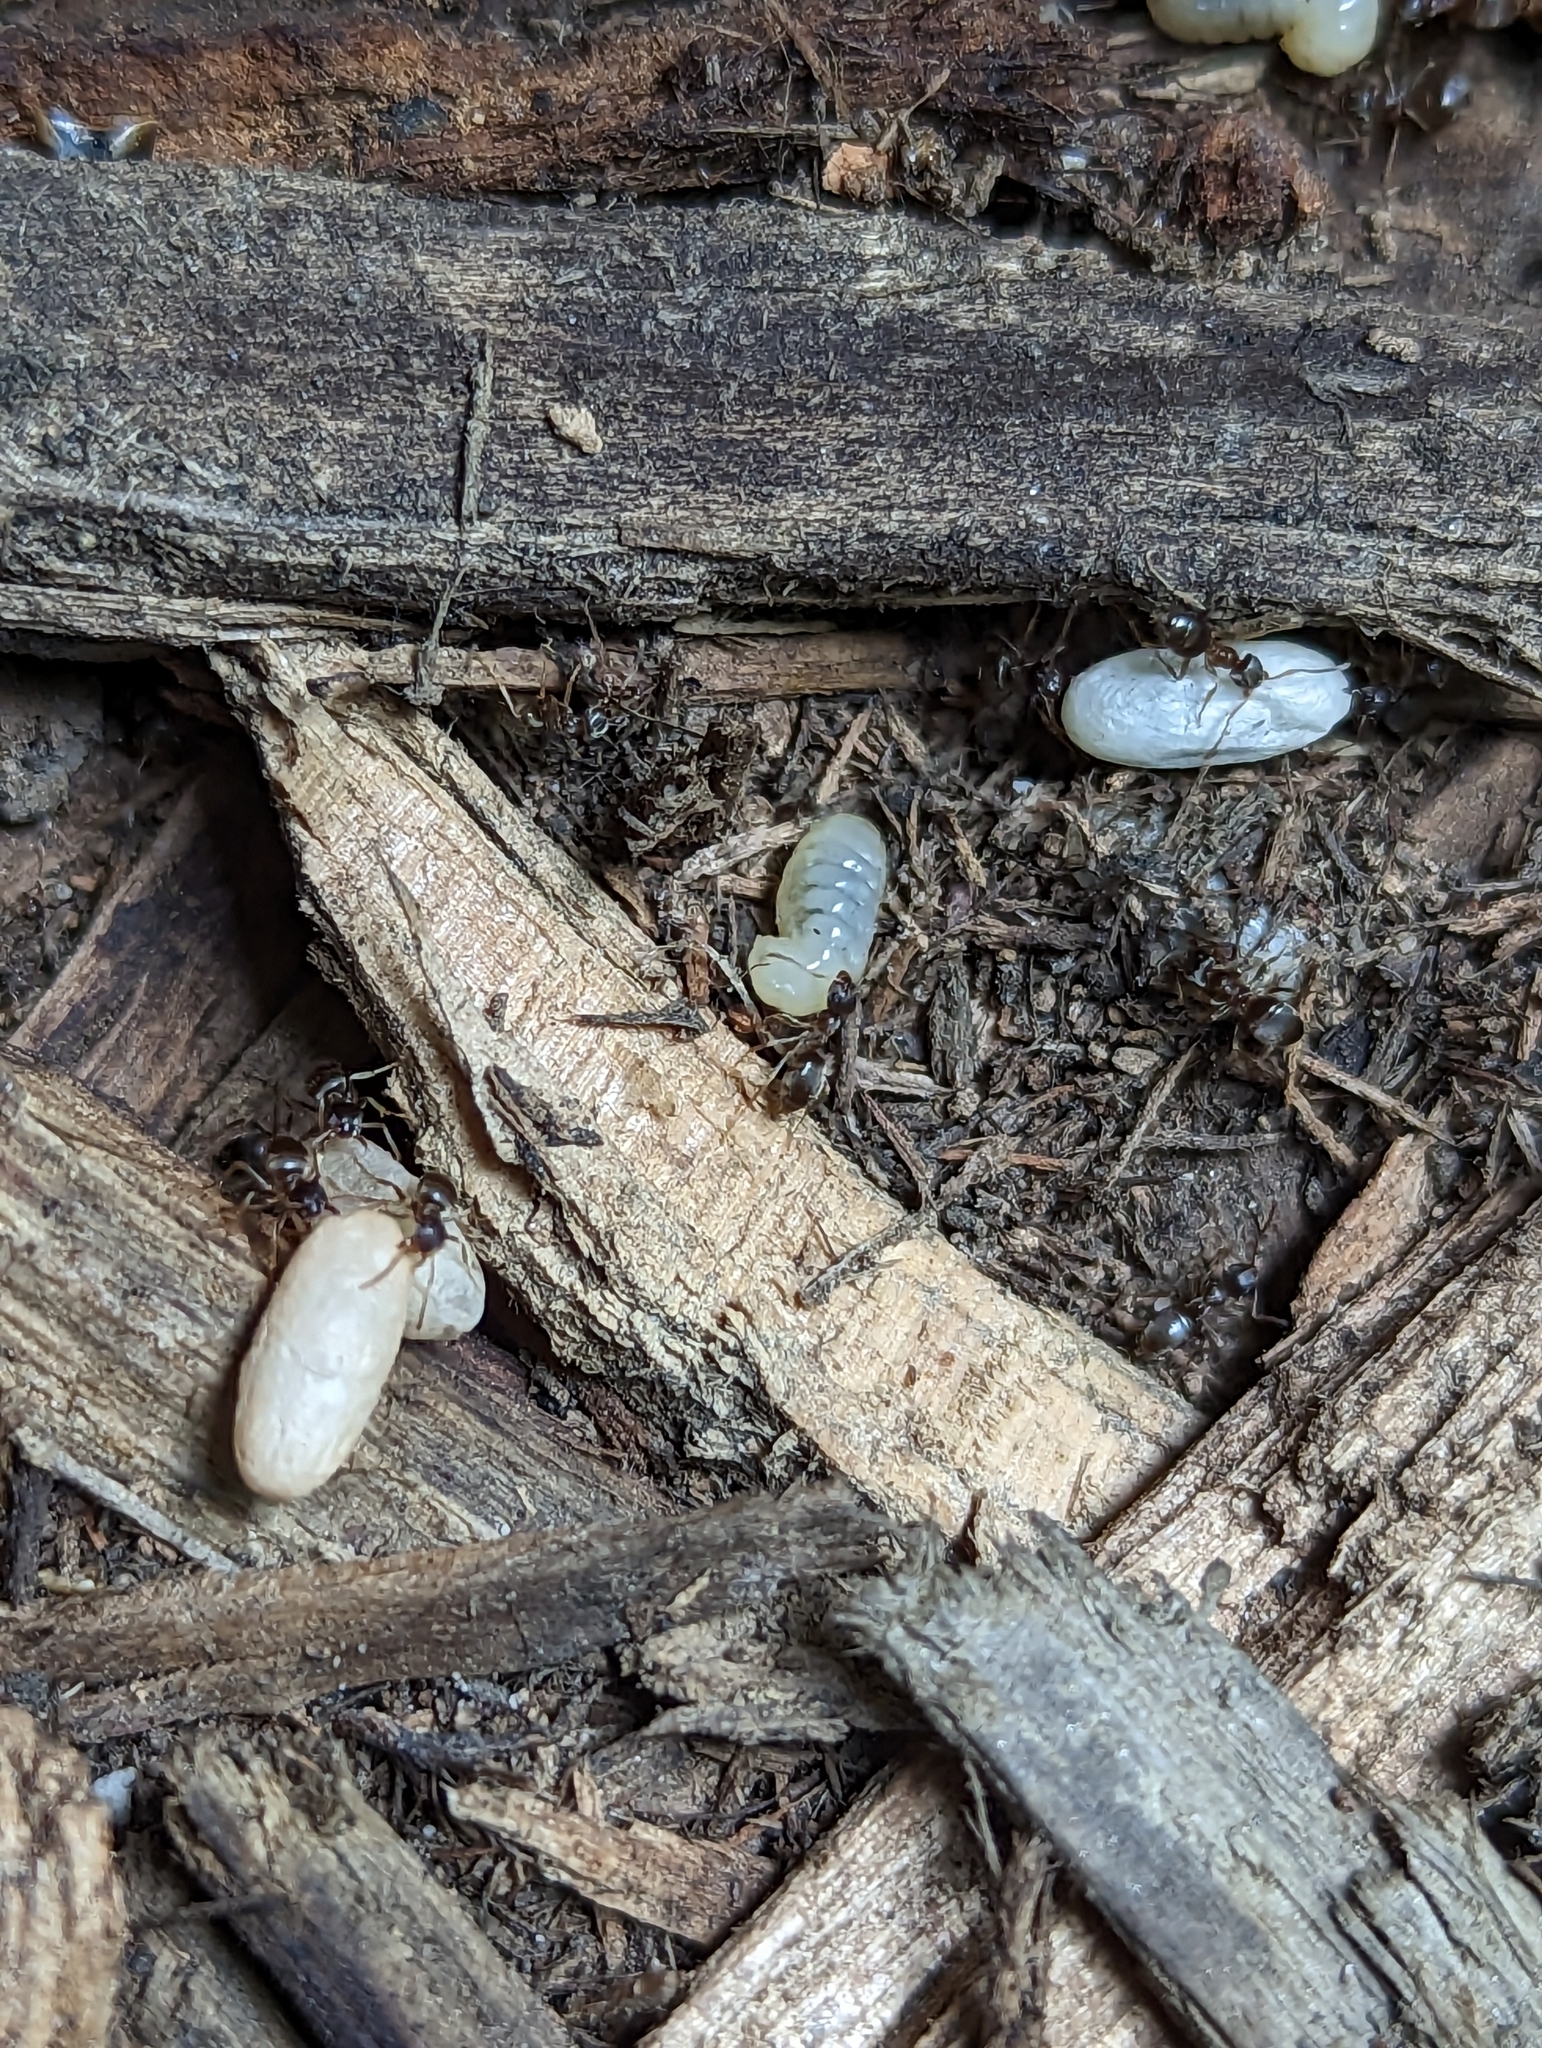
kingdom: Animalia
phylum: Arthropoda
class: Insecta
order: Hymenoptera
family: Formicidae
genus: Lasius
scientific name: Lasius americanus
